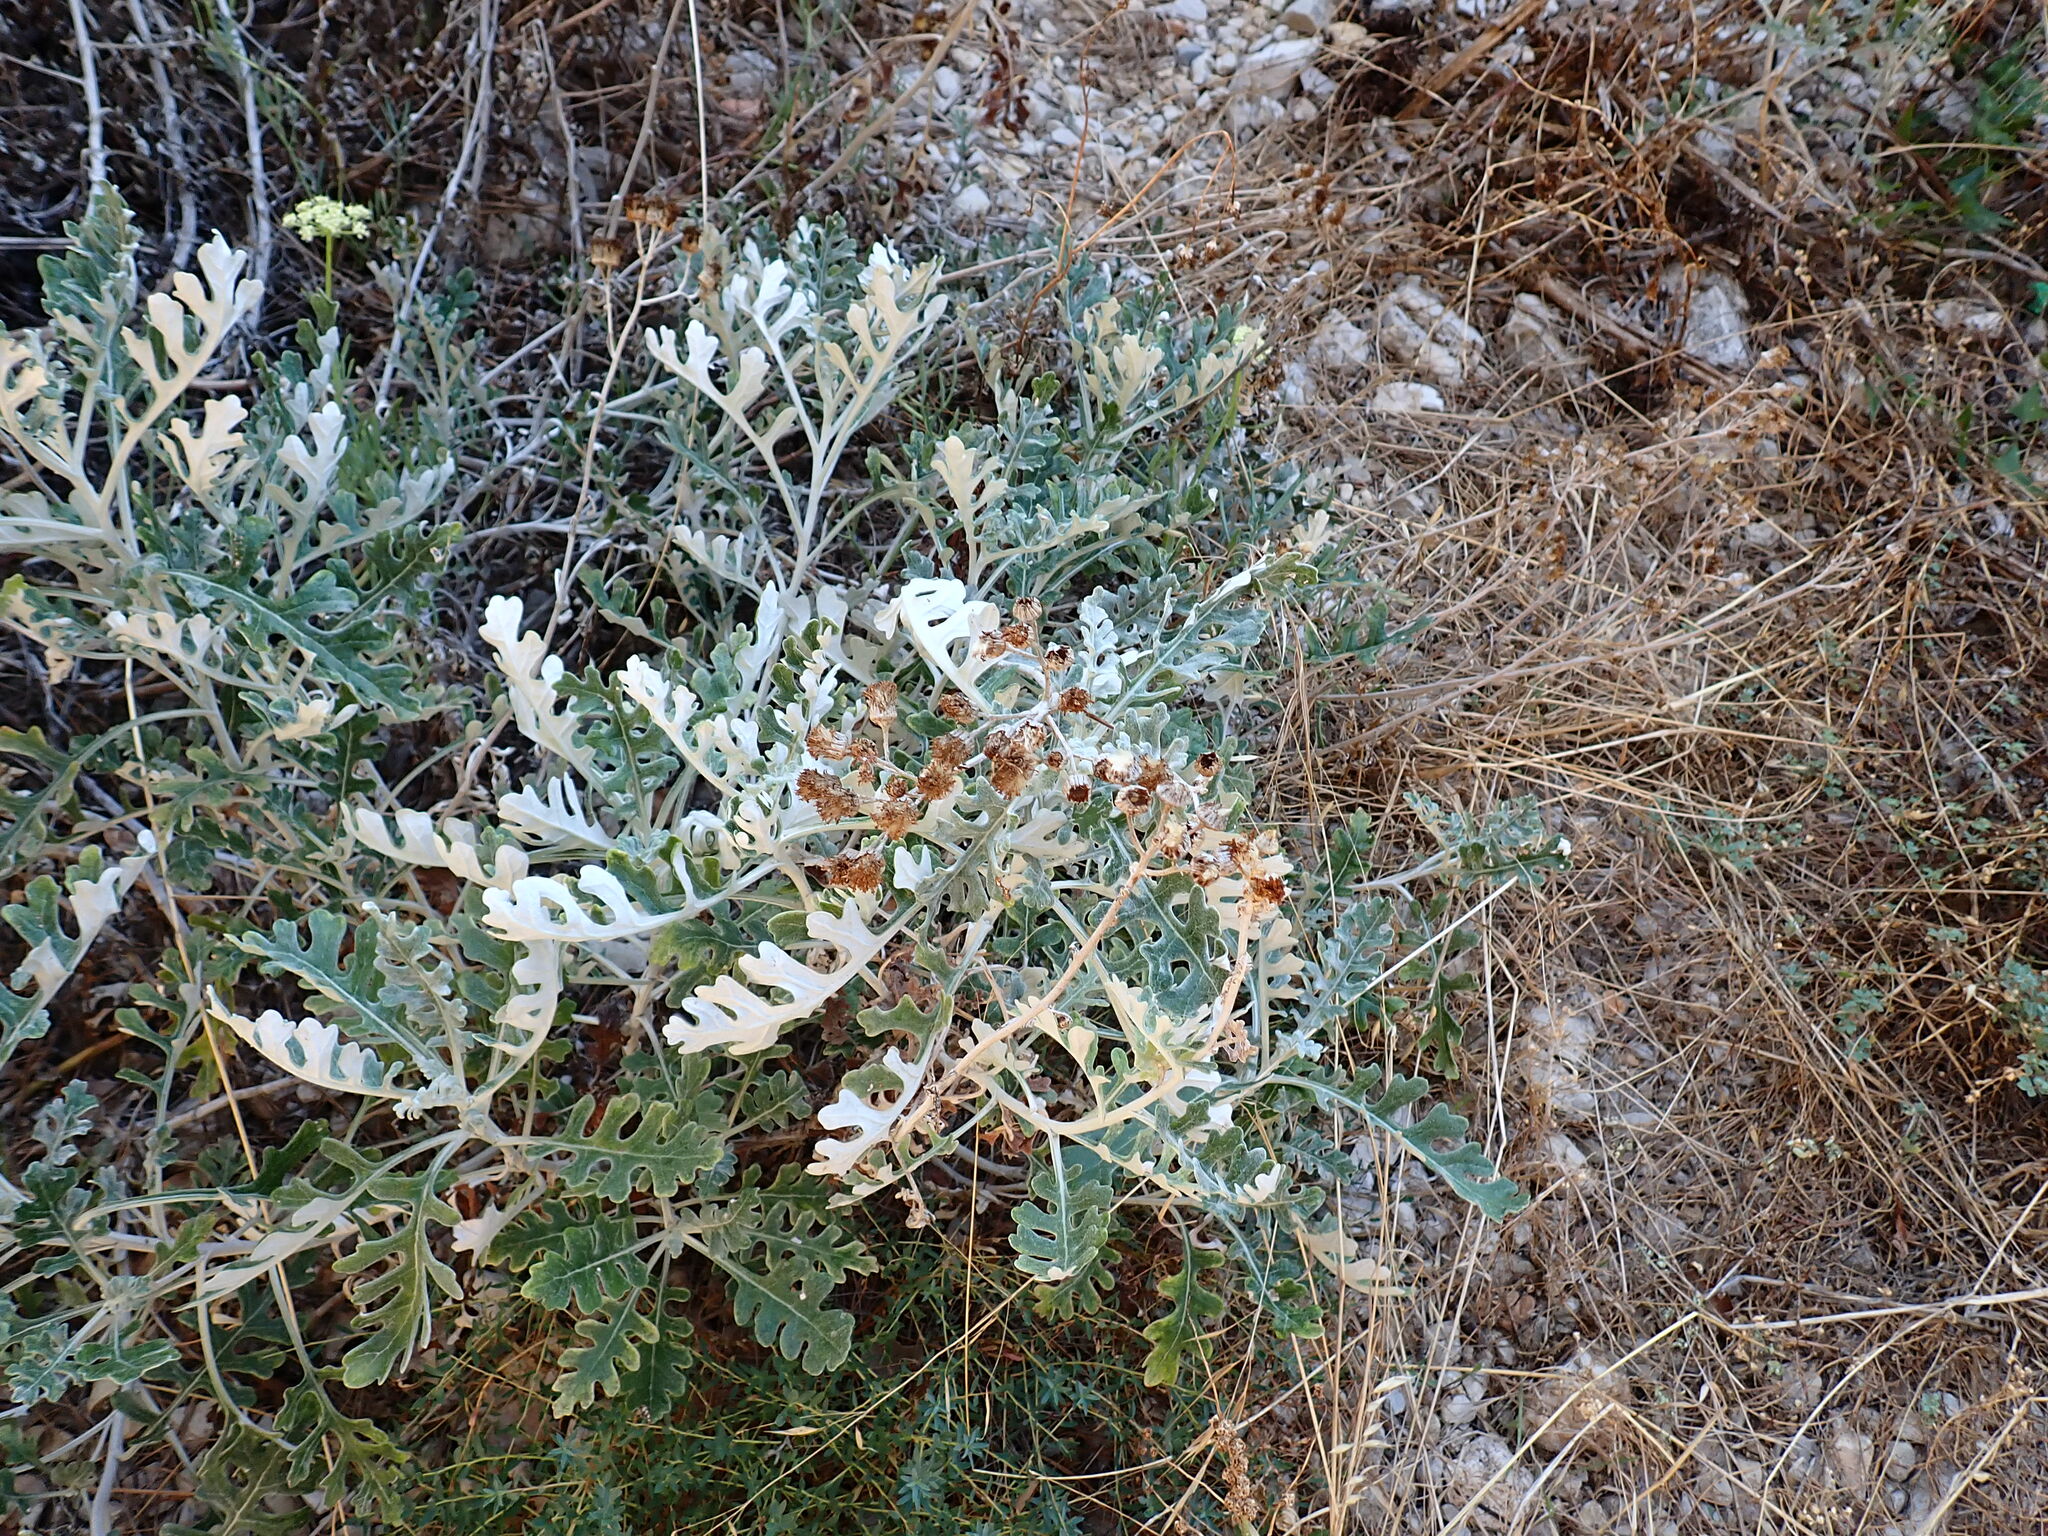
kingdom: Plantae
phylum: Tracheophyta
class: Magnoliopsida
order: Asterales
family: Asteraceae
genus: Jacobaea
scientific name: Jacobaea maritima
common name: Silver ragwort
